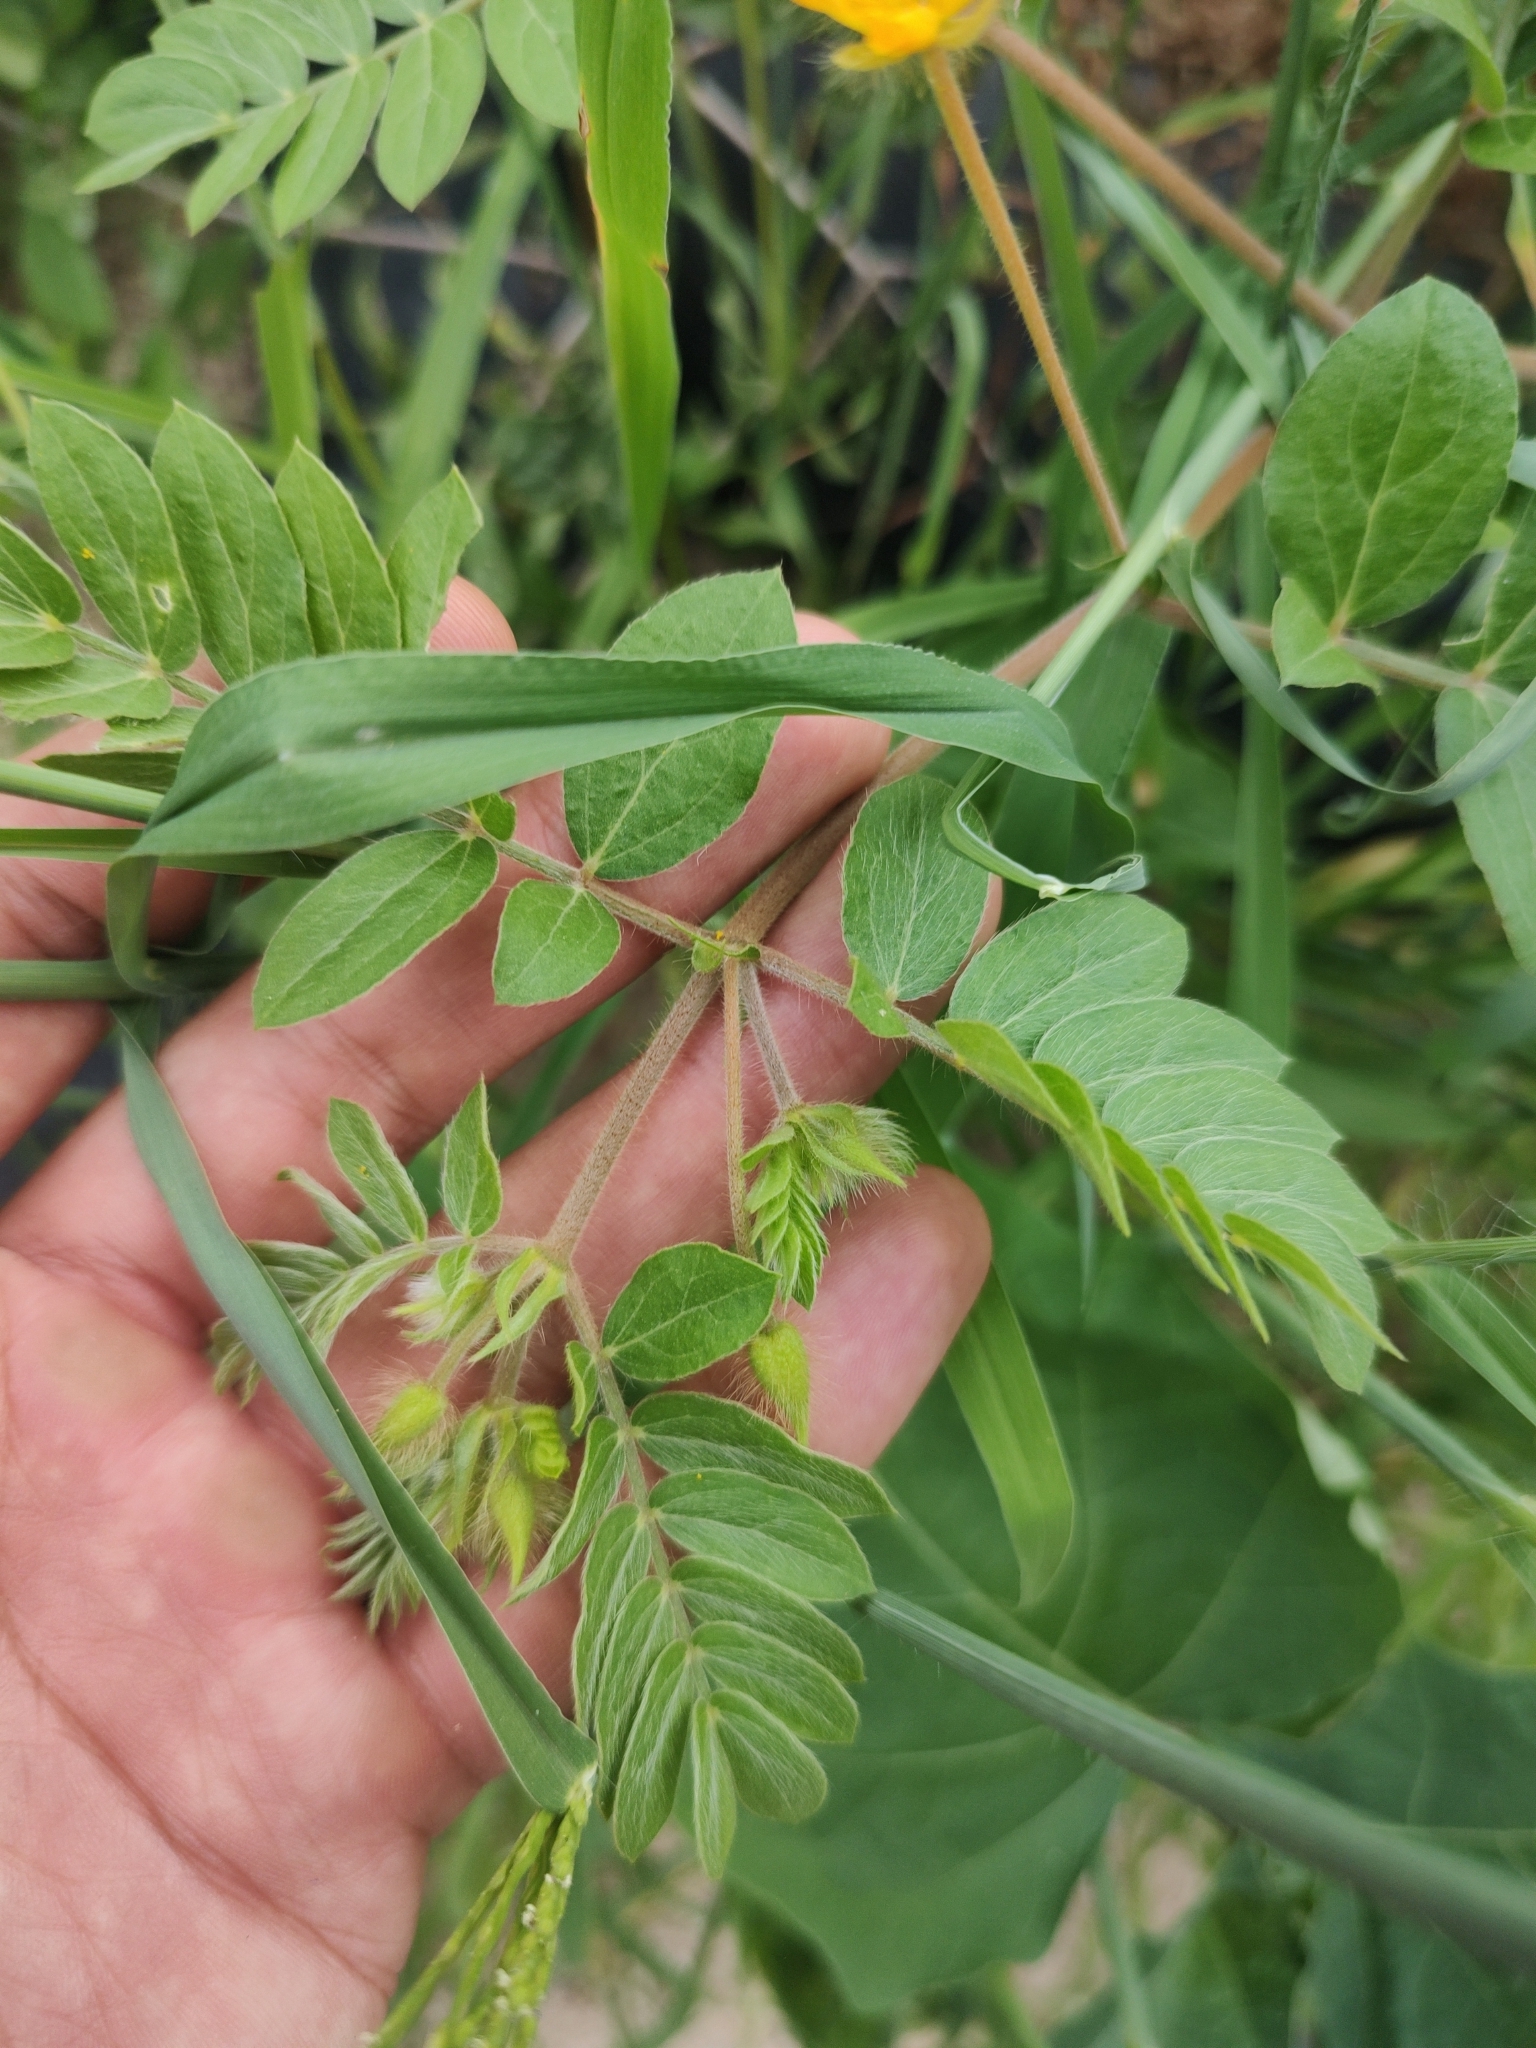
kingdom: Plantae
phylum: Tracheophyta
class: Magnoliopsida
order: Zygophyllales
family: Zygophyllaceae
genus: Kallstroemia
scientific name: Kallstroemia peninsularis
